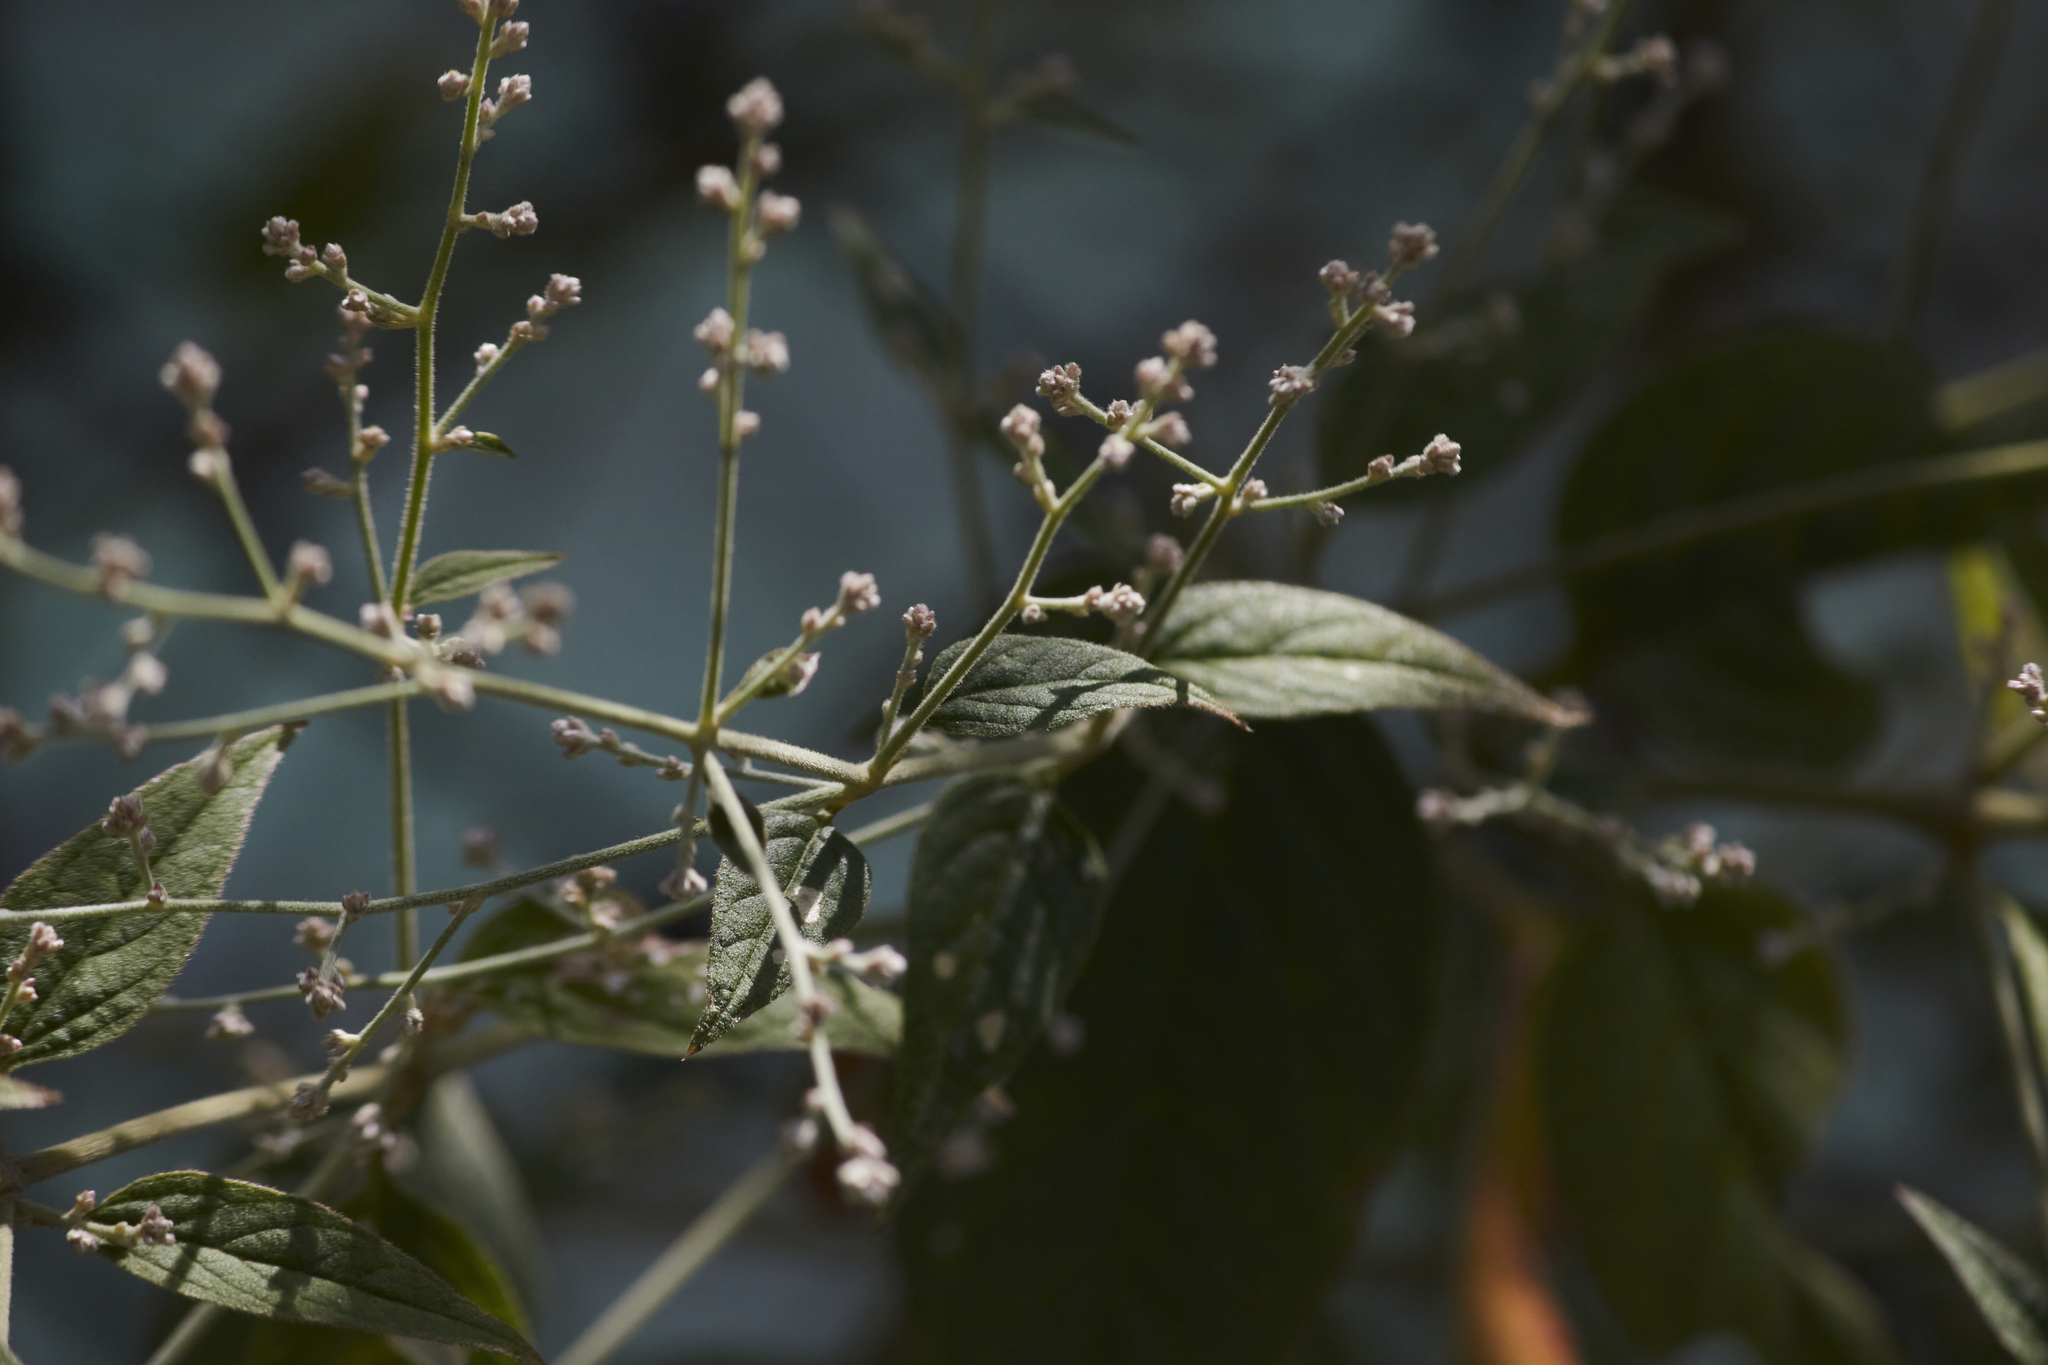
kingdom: Plantae
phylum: Tracheophyta
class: Magnoliopsida
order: Caryophyllales
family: Amaranthaceae
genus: Iresine
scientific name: Iresine diffusa
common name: Juba's-bush
